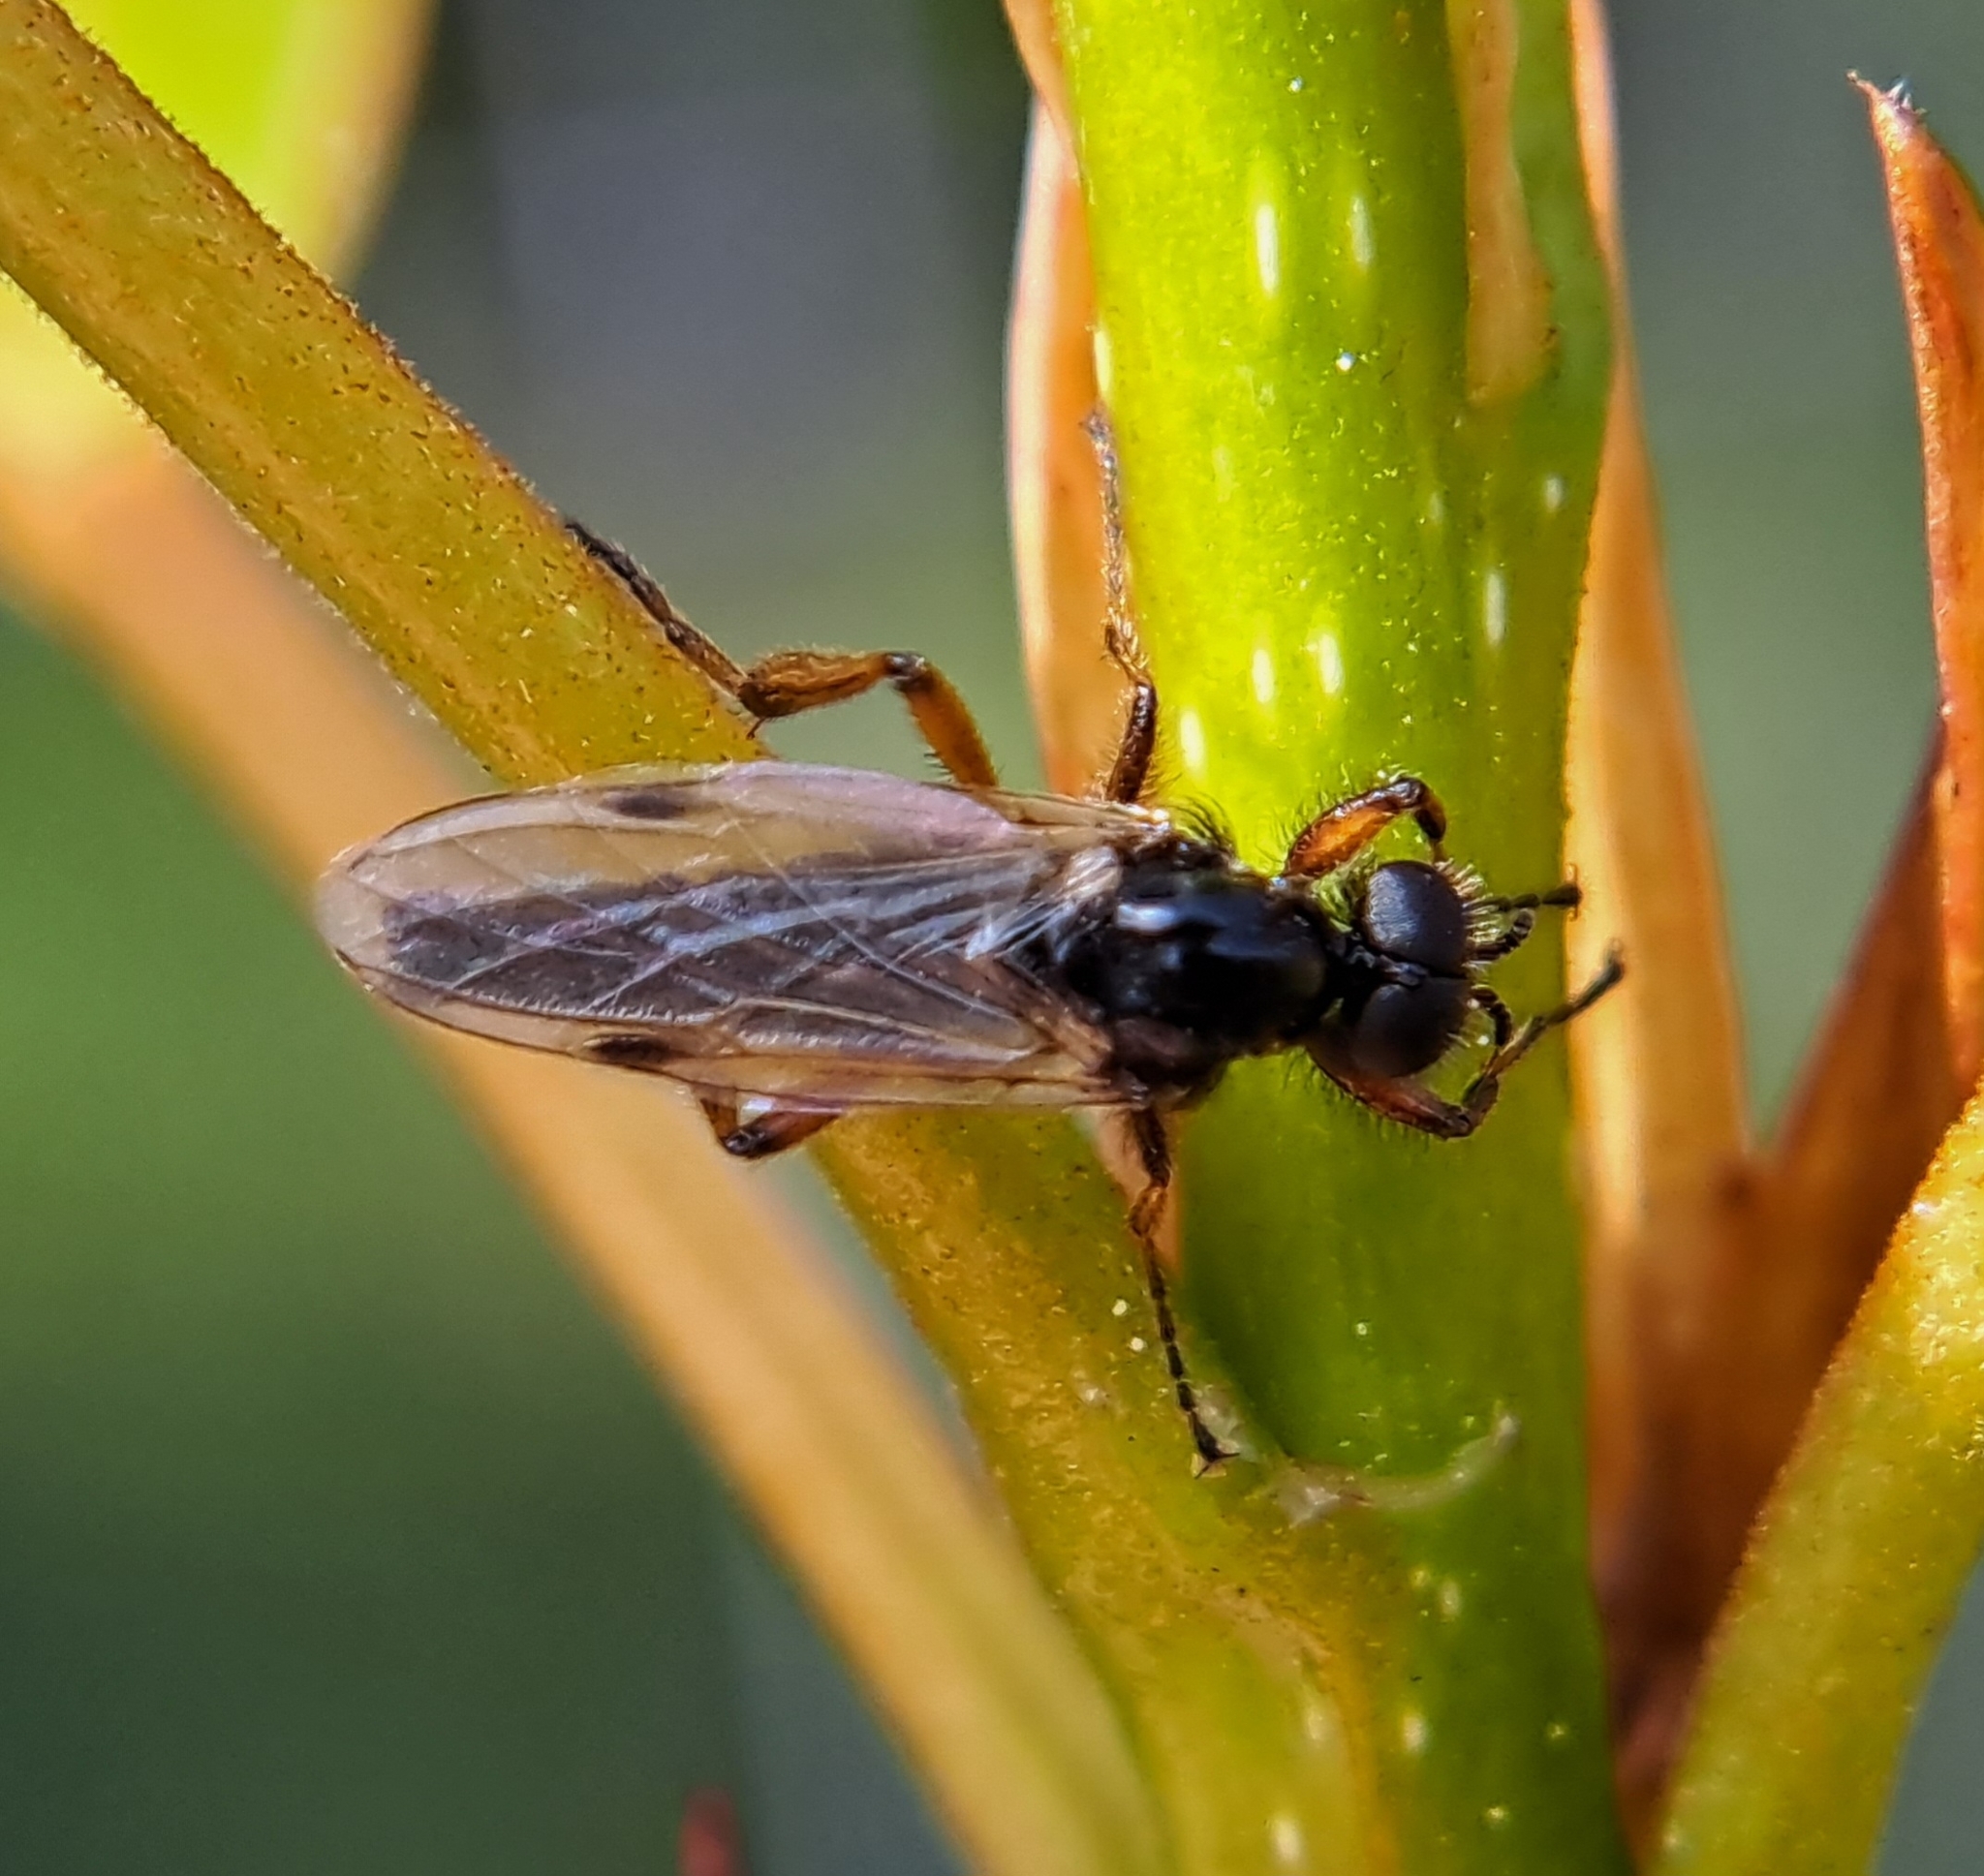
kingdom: Animalia
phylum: Arthropoda
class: Insecta
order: Diptera
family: Bibionidae
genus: Bibio
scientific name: Bibio articulatus
